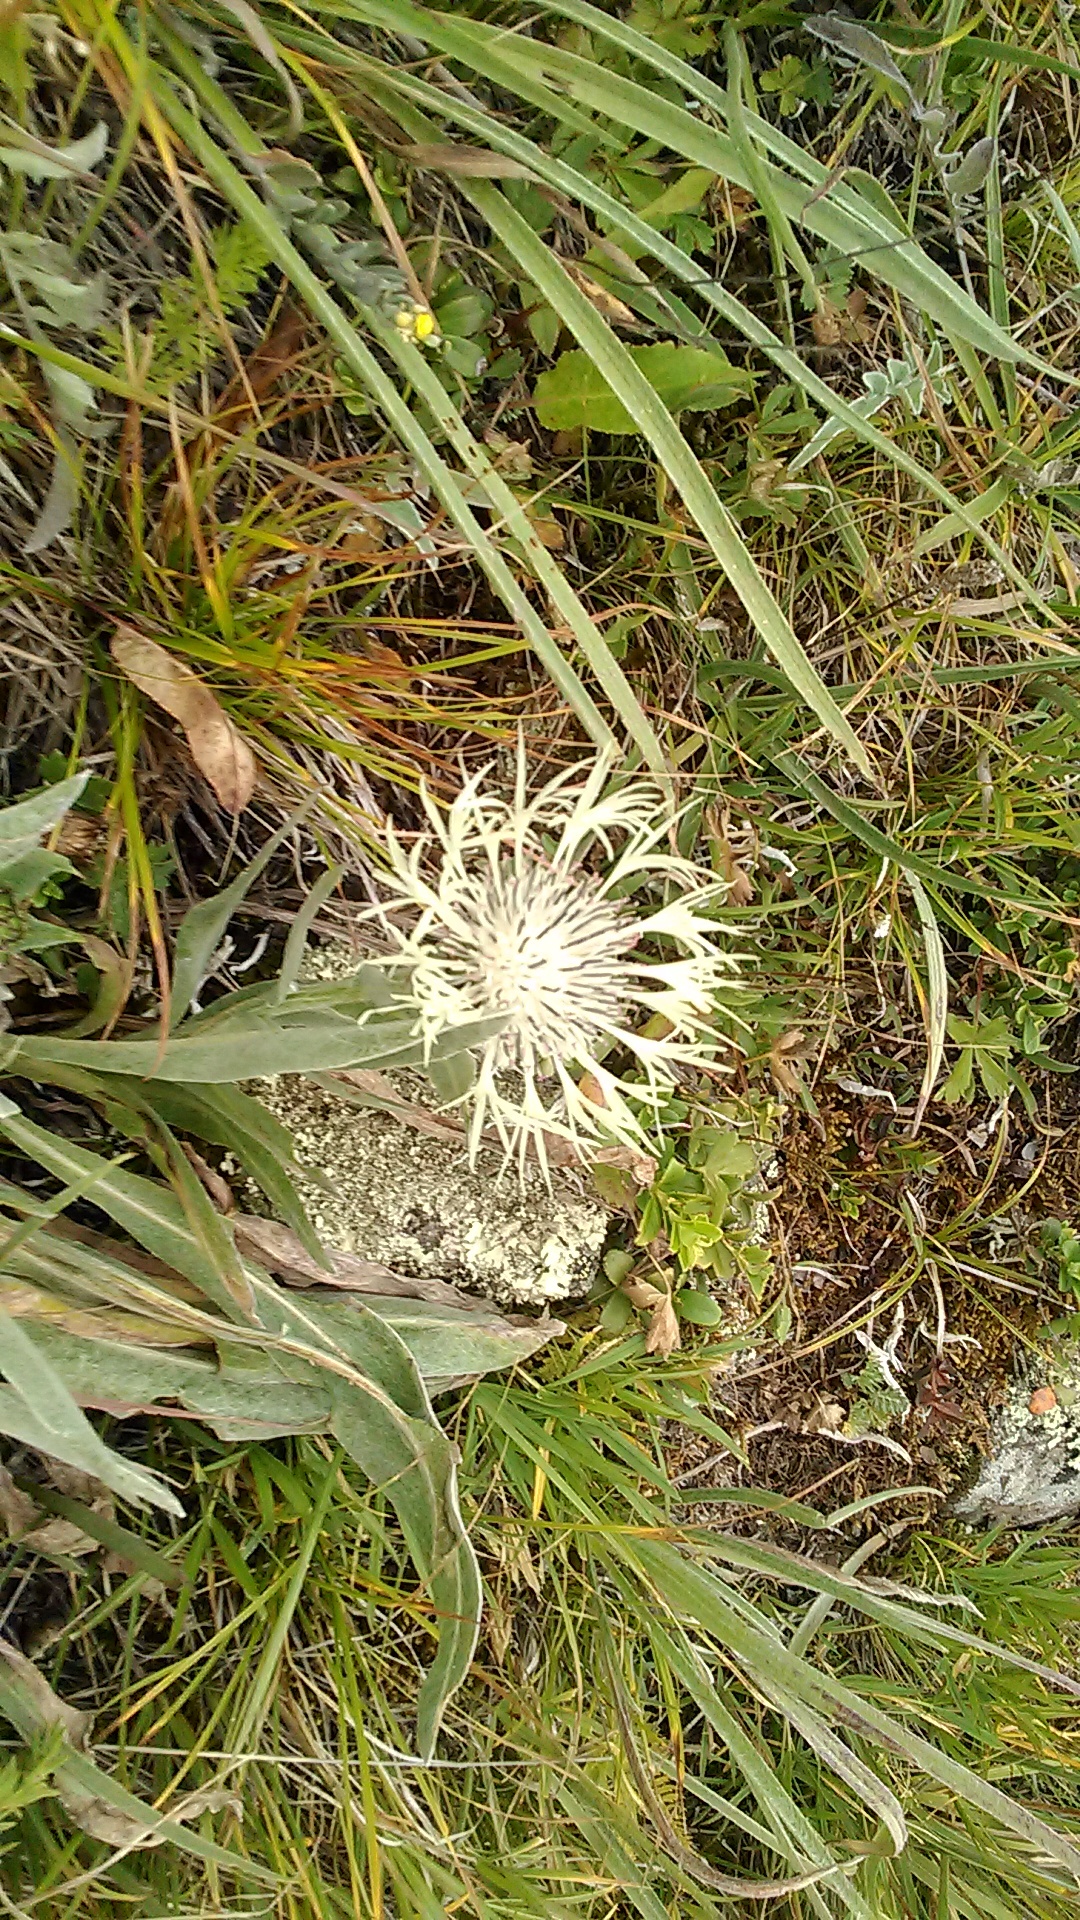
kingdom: Plantae
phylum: Tracheophyta
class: Magnoliopsida
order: Asterales
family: Asteraceae
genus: Centaurea
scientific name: Centaurea cheiranthifolia
